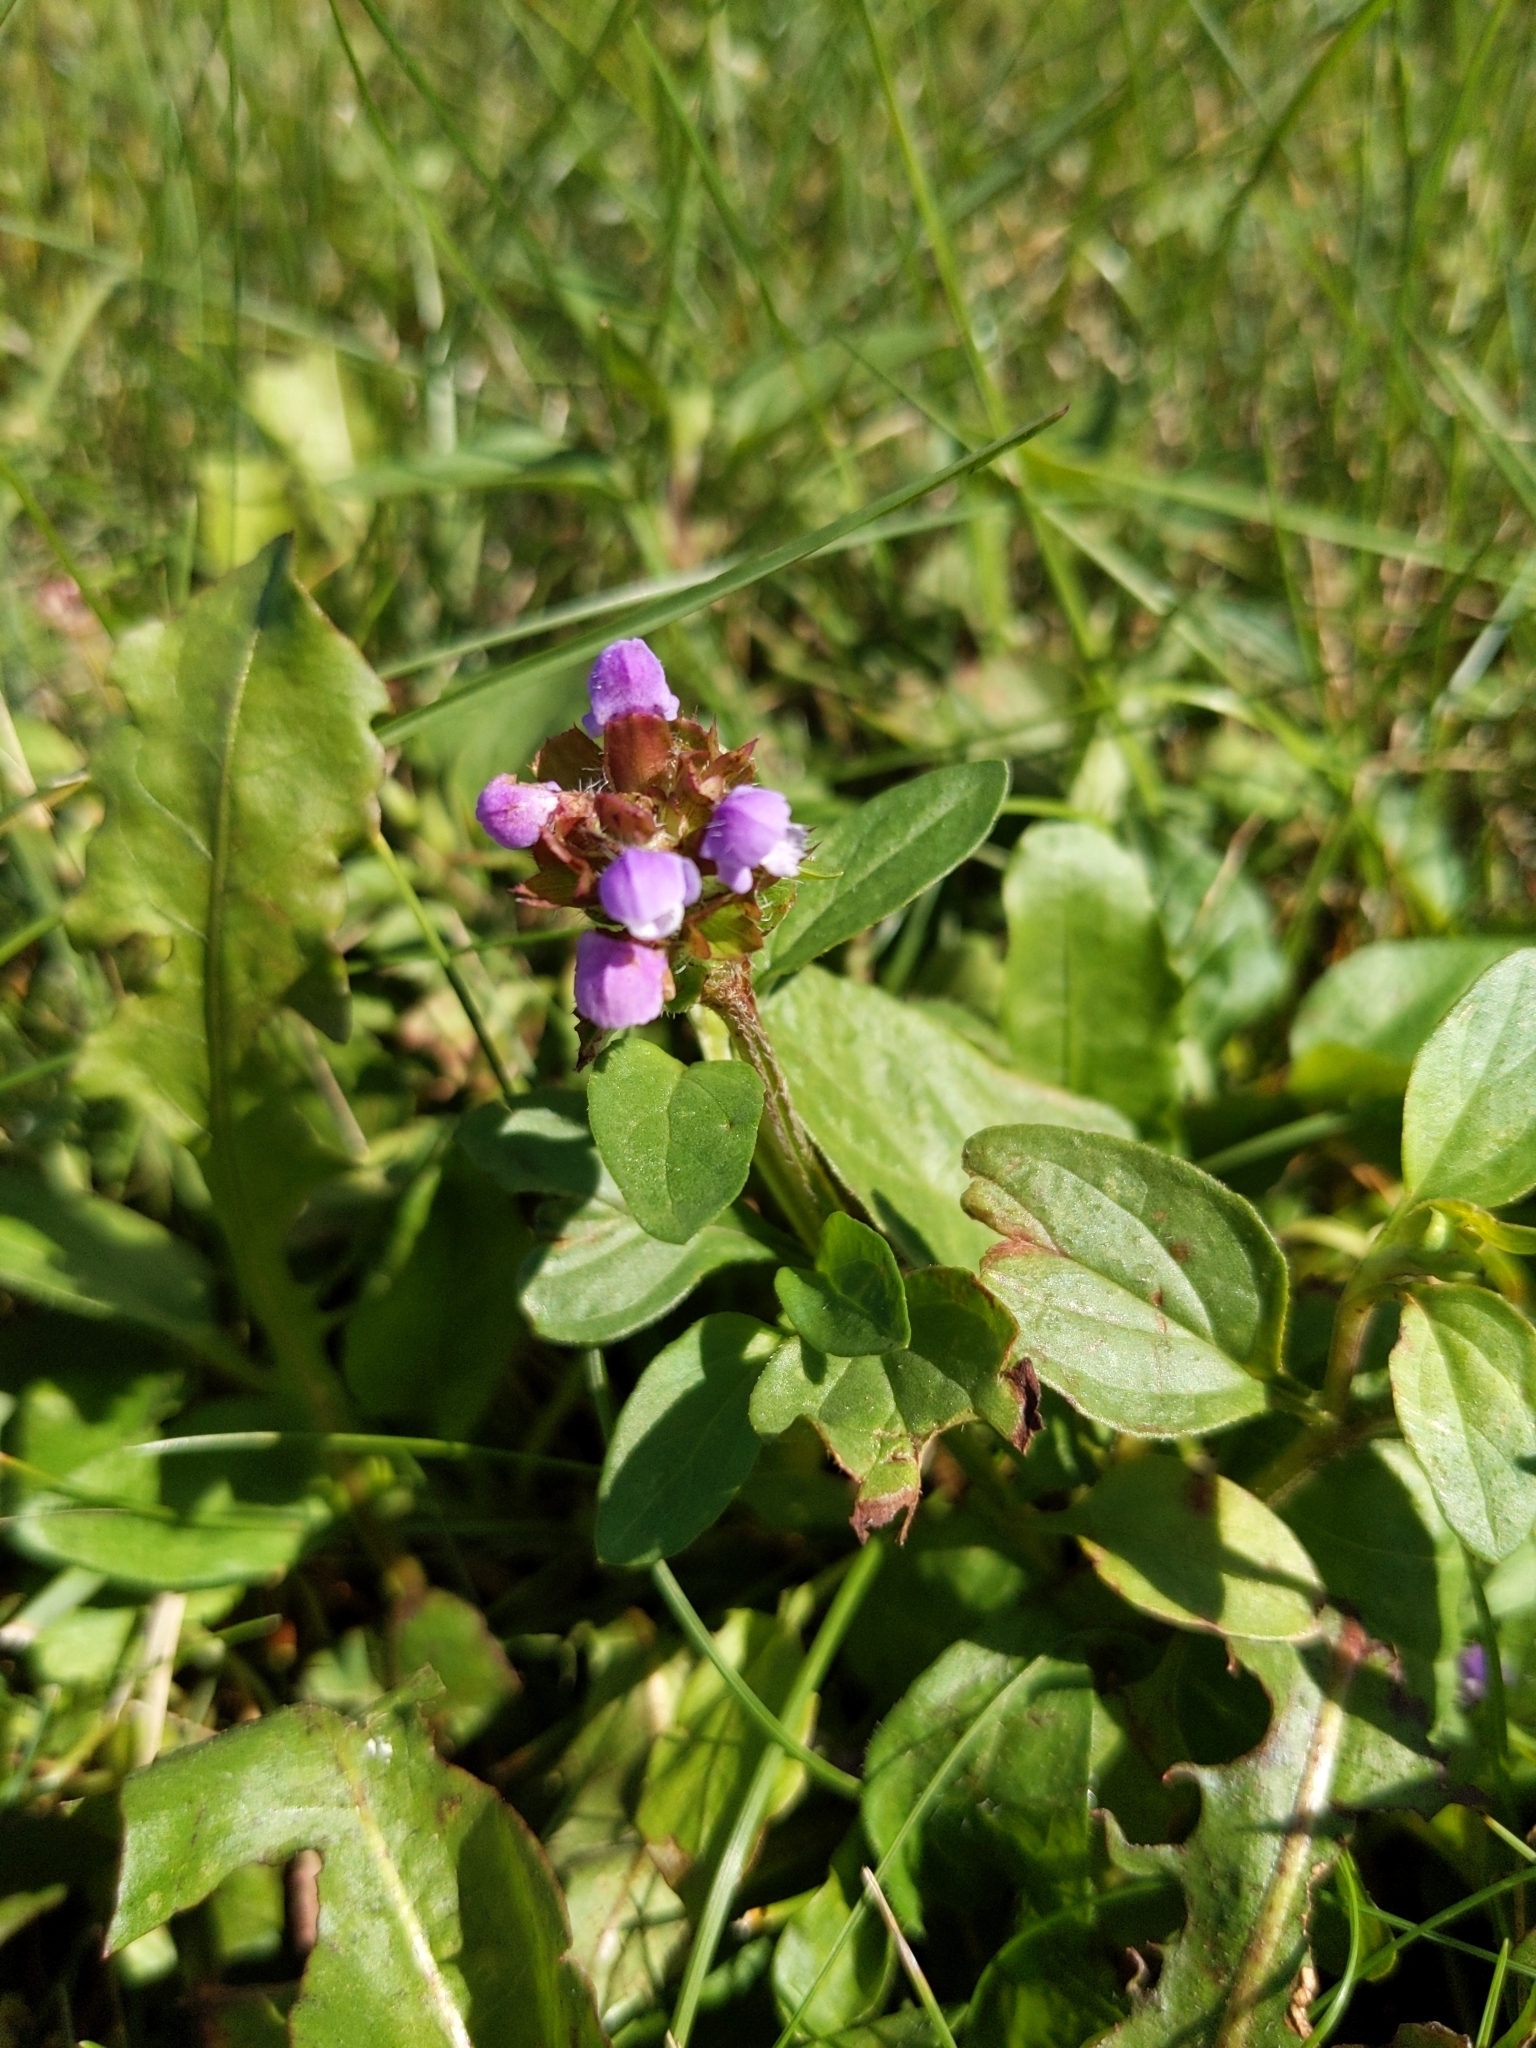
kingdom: Plantae
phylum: Tracheophyta
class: Magnoliopsida
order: Lamiales
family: Lamiaceae
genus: Prunella
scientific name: Prunella vulgaris
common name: Heal-all
